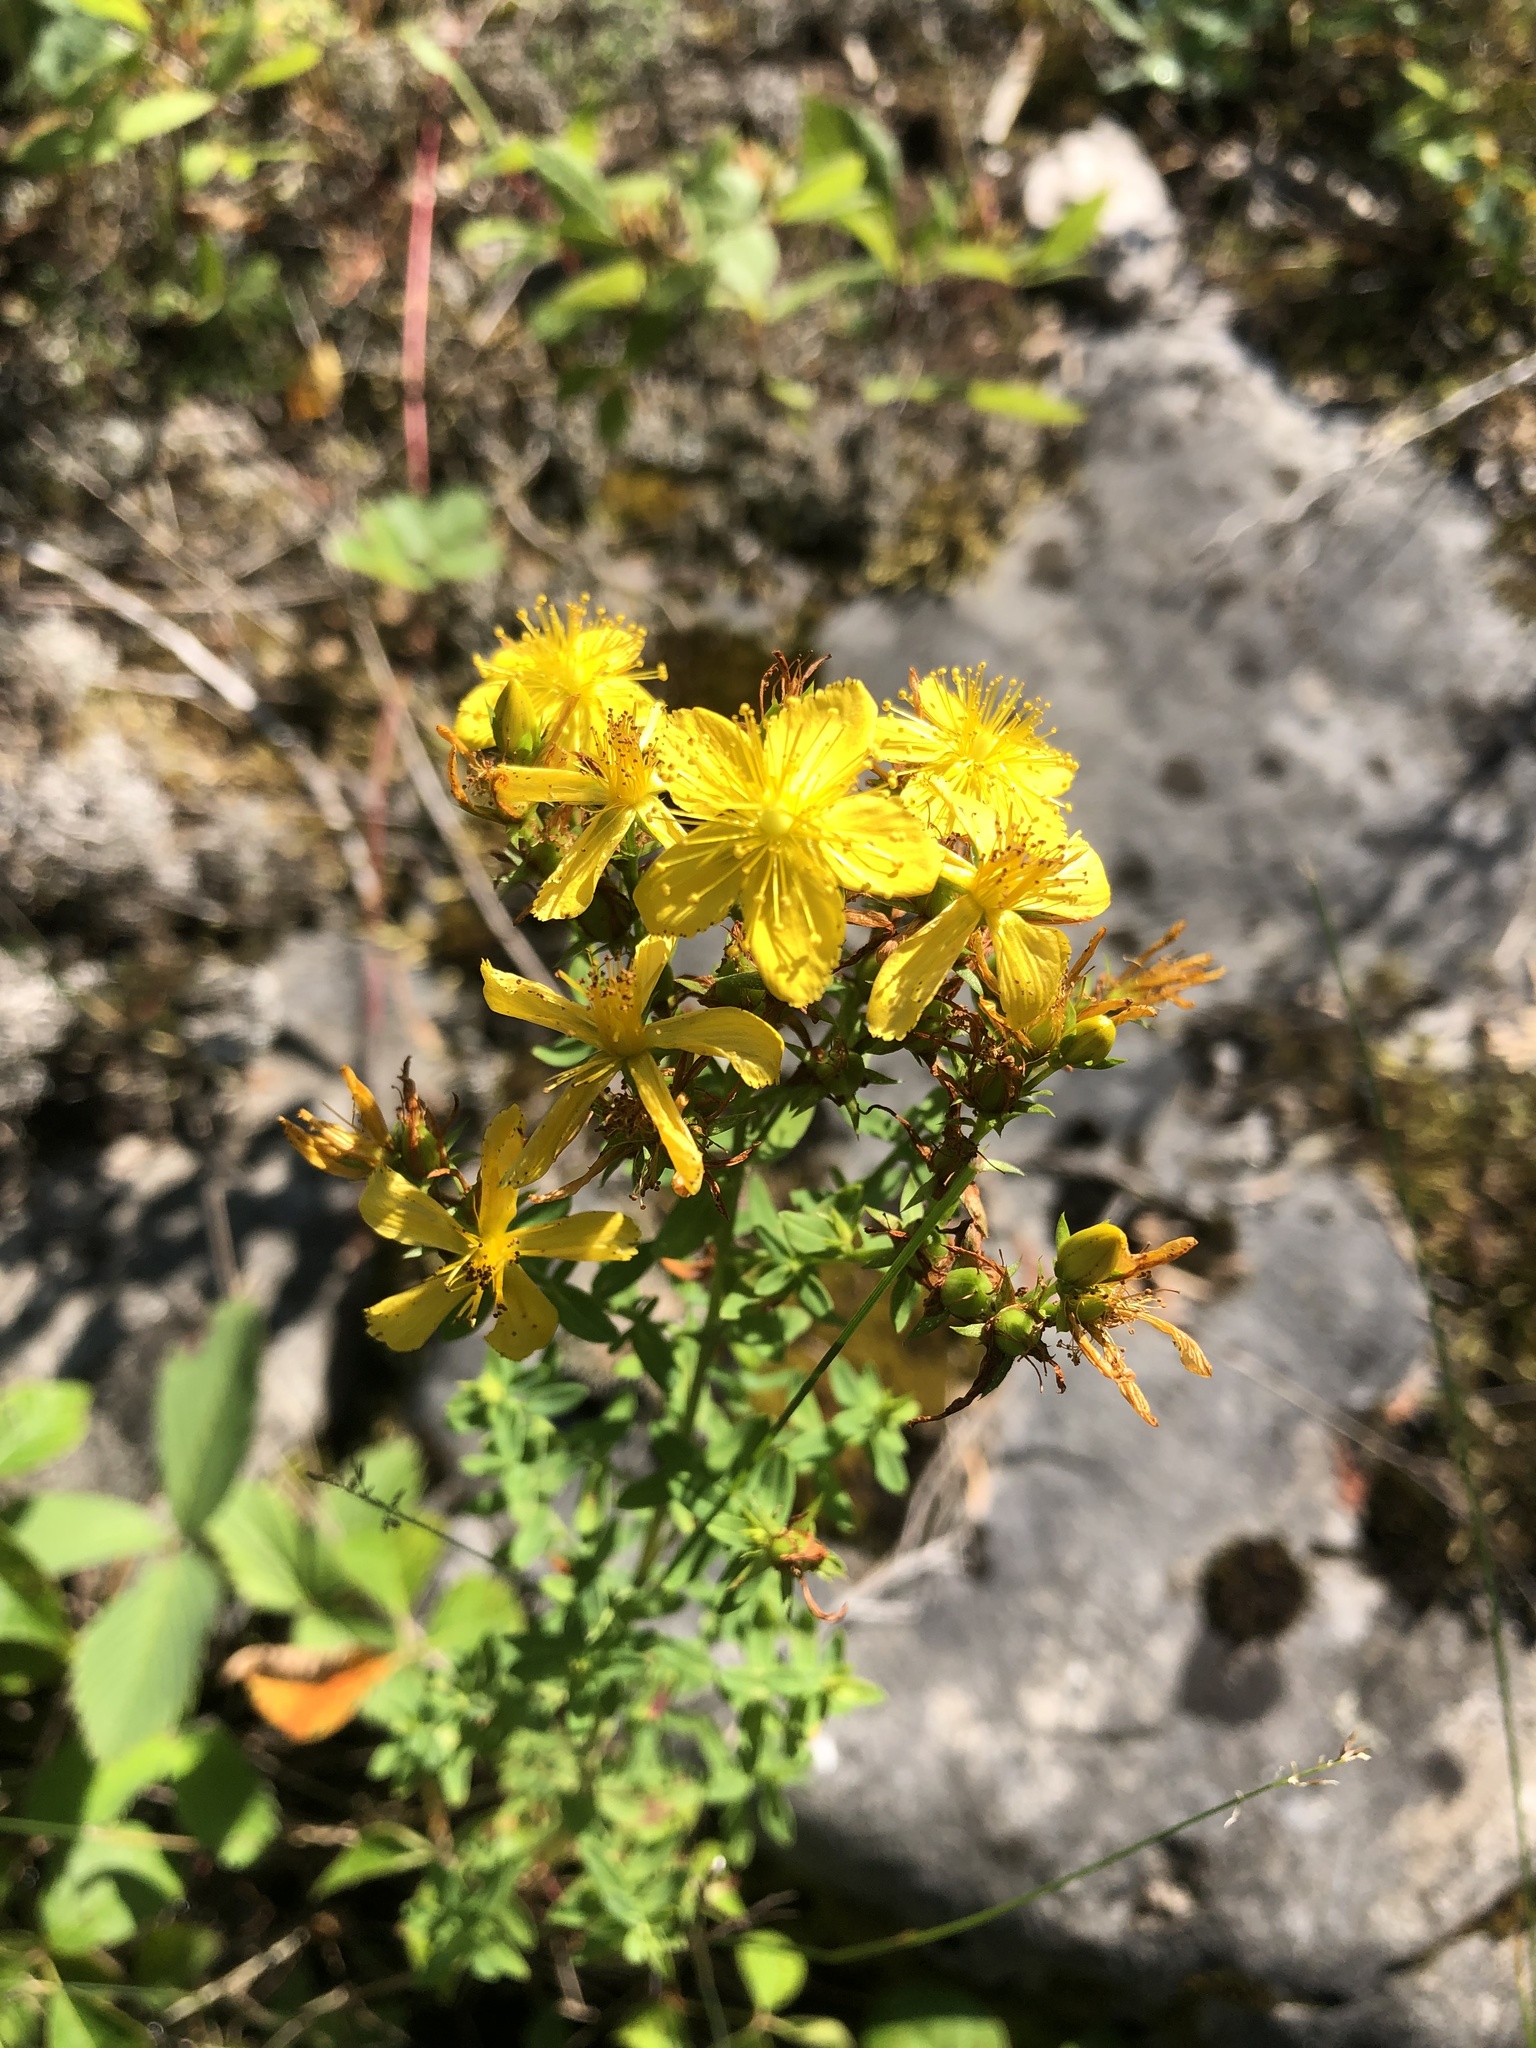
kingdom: Plantae
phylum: Tracheophyta
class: Magnoliopsida
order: Malpighiales
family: Hypericaceae
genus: Hypericum
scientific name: Hypericum perforatum
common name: Common st. johnswort
